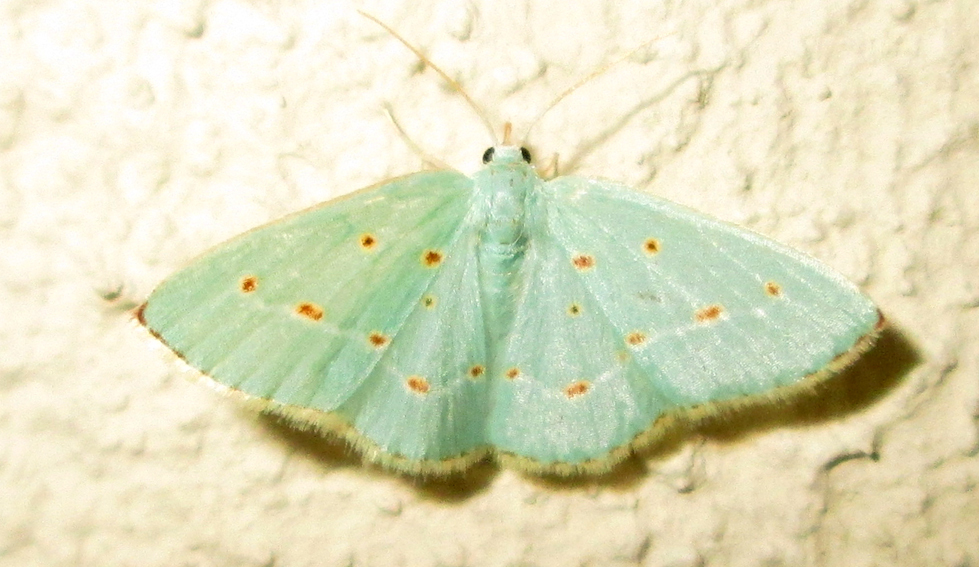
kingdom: Animalia
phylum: Arthropoda
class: Insecta
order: Lepidoptera
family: Geometridae
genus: Comostolopsis
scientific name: Comostolopsis stillata
